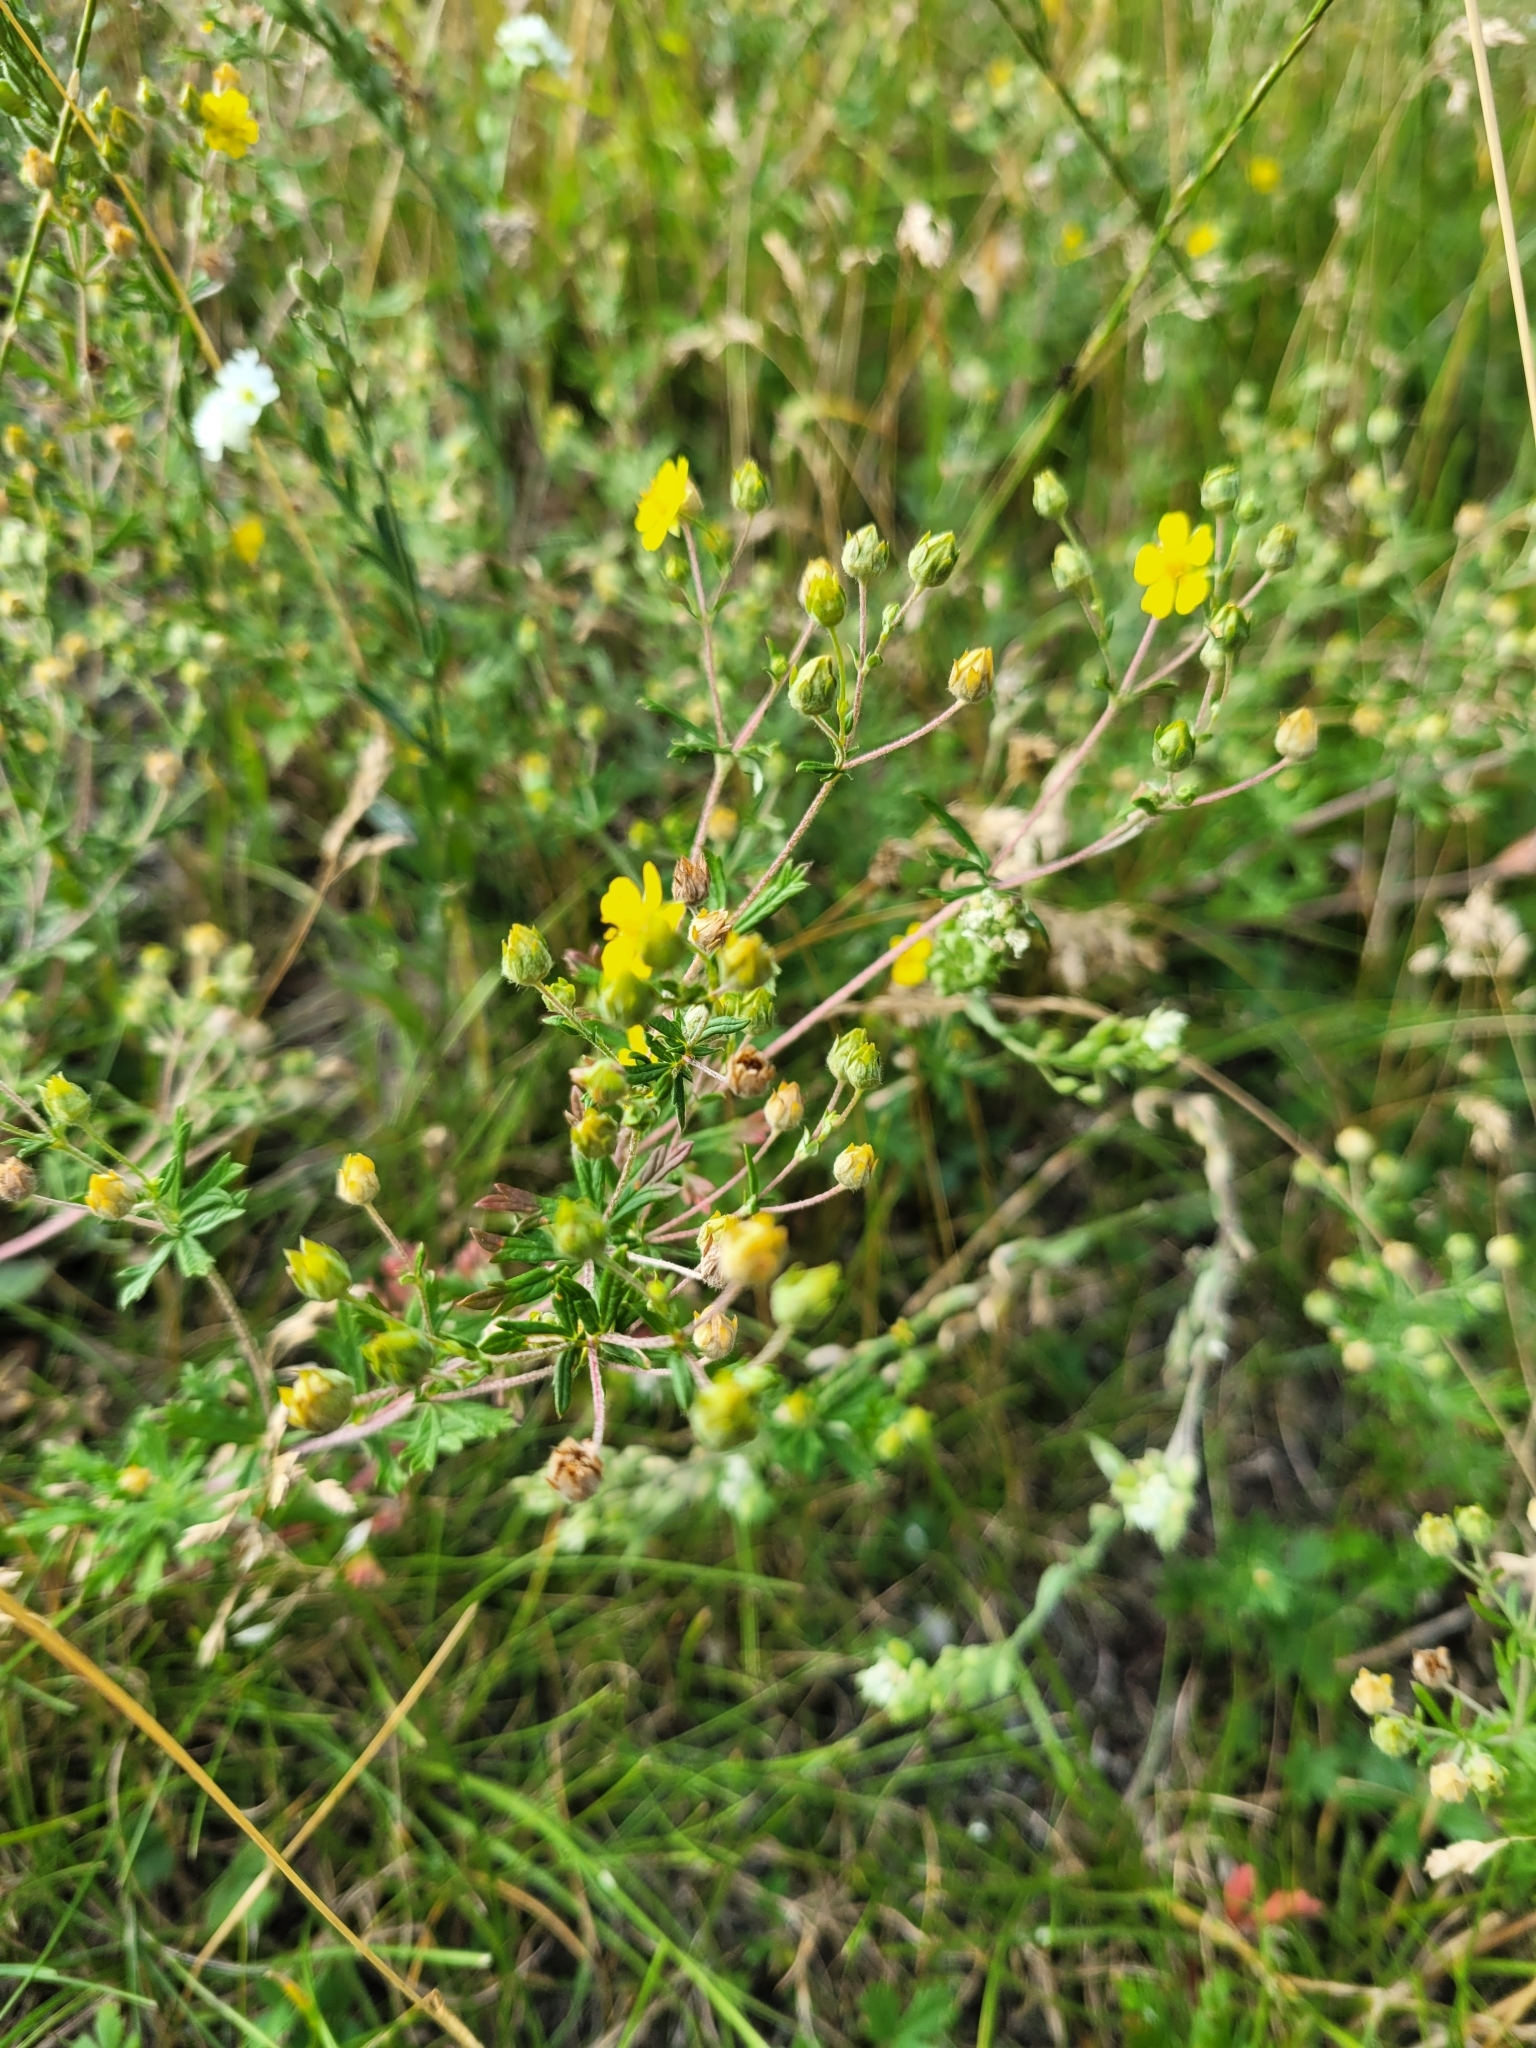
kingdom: Plantae
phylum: Tracheophyta
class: Magnoliopsida
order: Rosales
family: Rosaceae
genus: Potentilla
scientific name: Potentilla argentea
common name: Hoary cinquefoil
